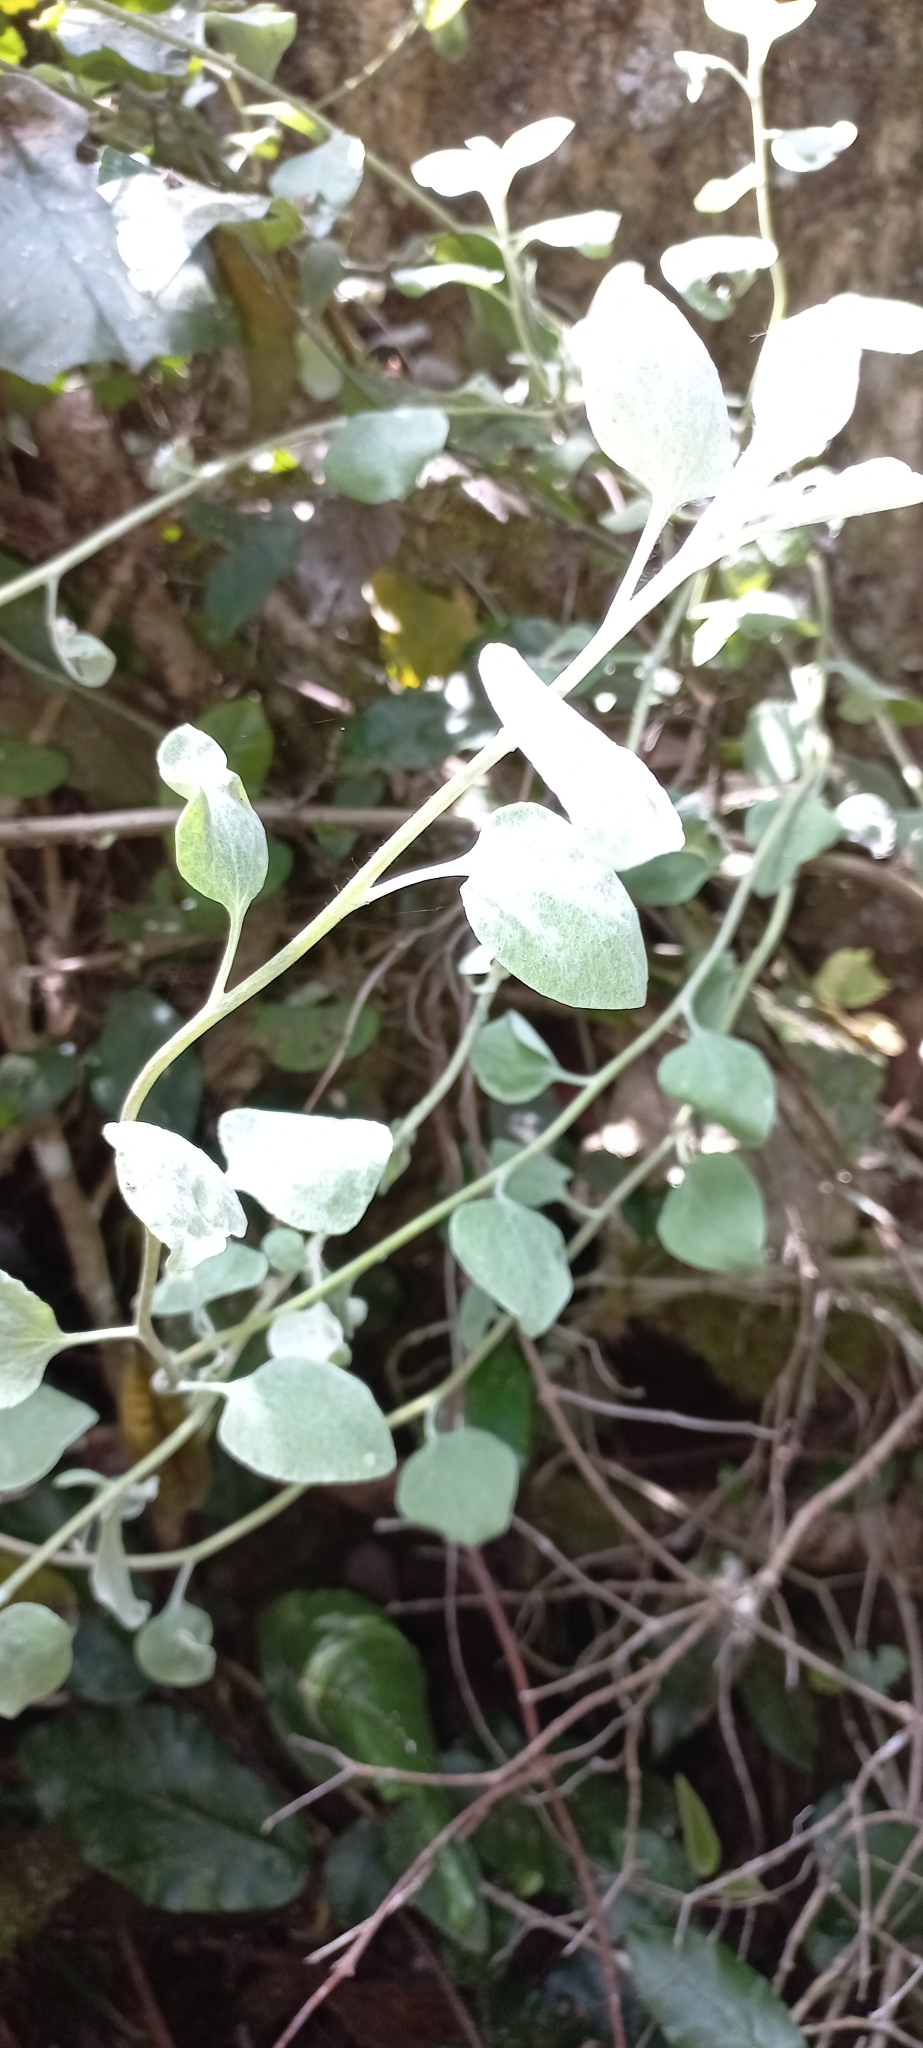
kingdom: Plantae
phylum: Tracheophyta
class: Magnoliopsida
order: Asterales
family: Asteraceae
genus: Helichrysum
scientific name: Helichrysum petiolare
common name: Licorice-plant
